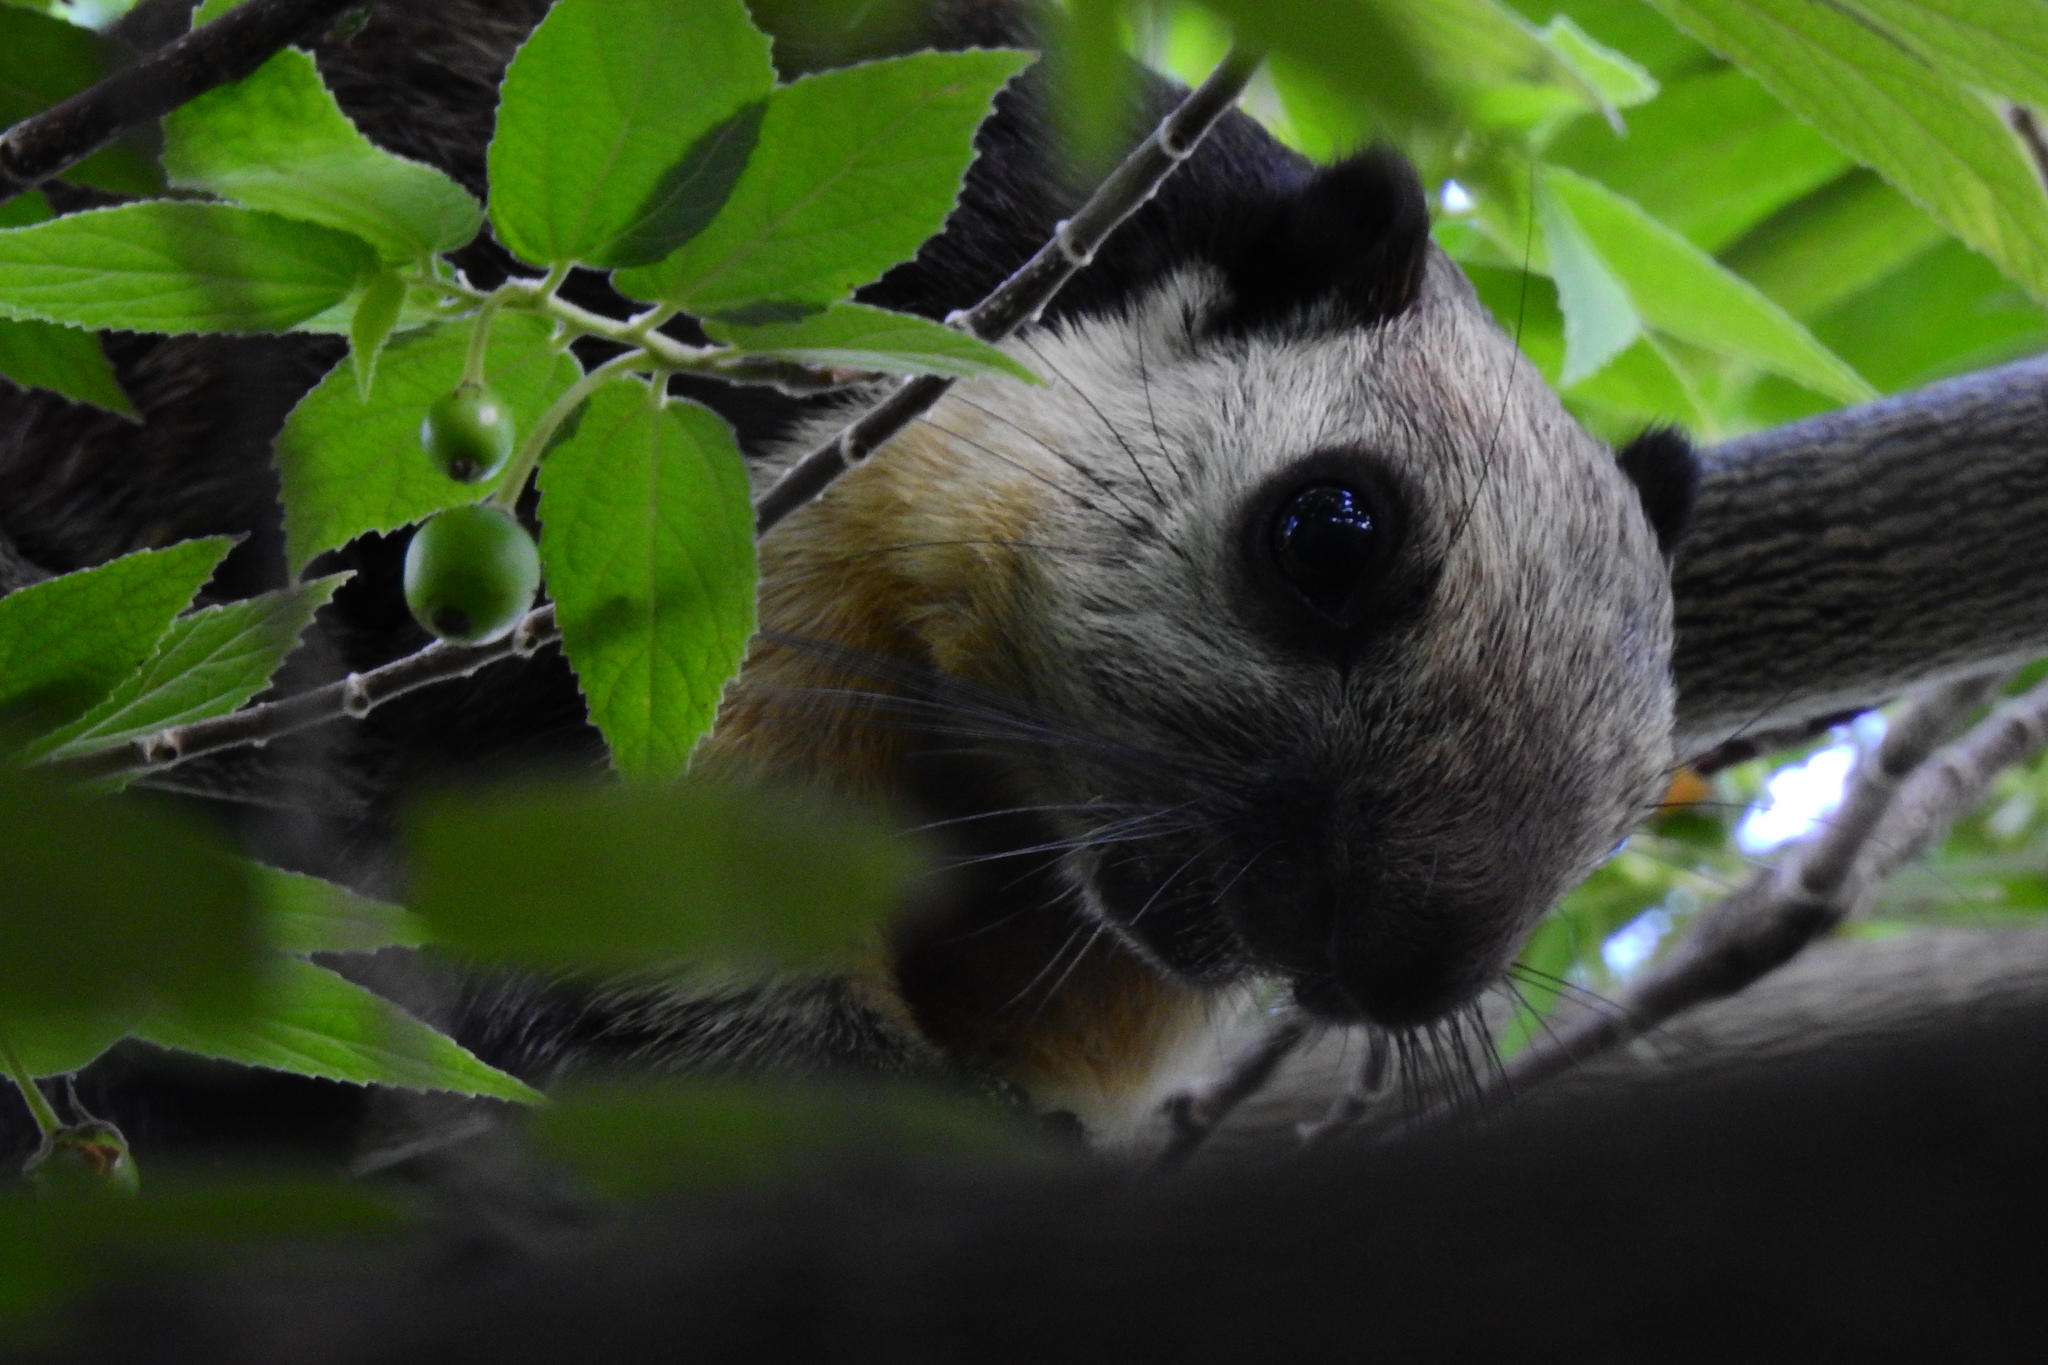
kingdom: Animalia
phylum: Chordata
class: Mammalia
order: Rodentia
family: Sciuridae
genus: Ratufa
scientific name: Ratufa bicolor
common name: Black giant squirrel
